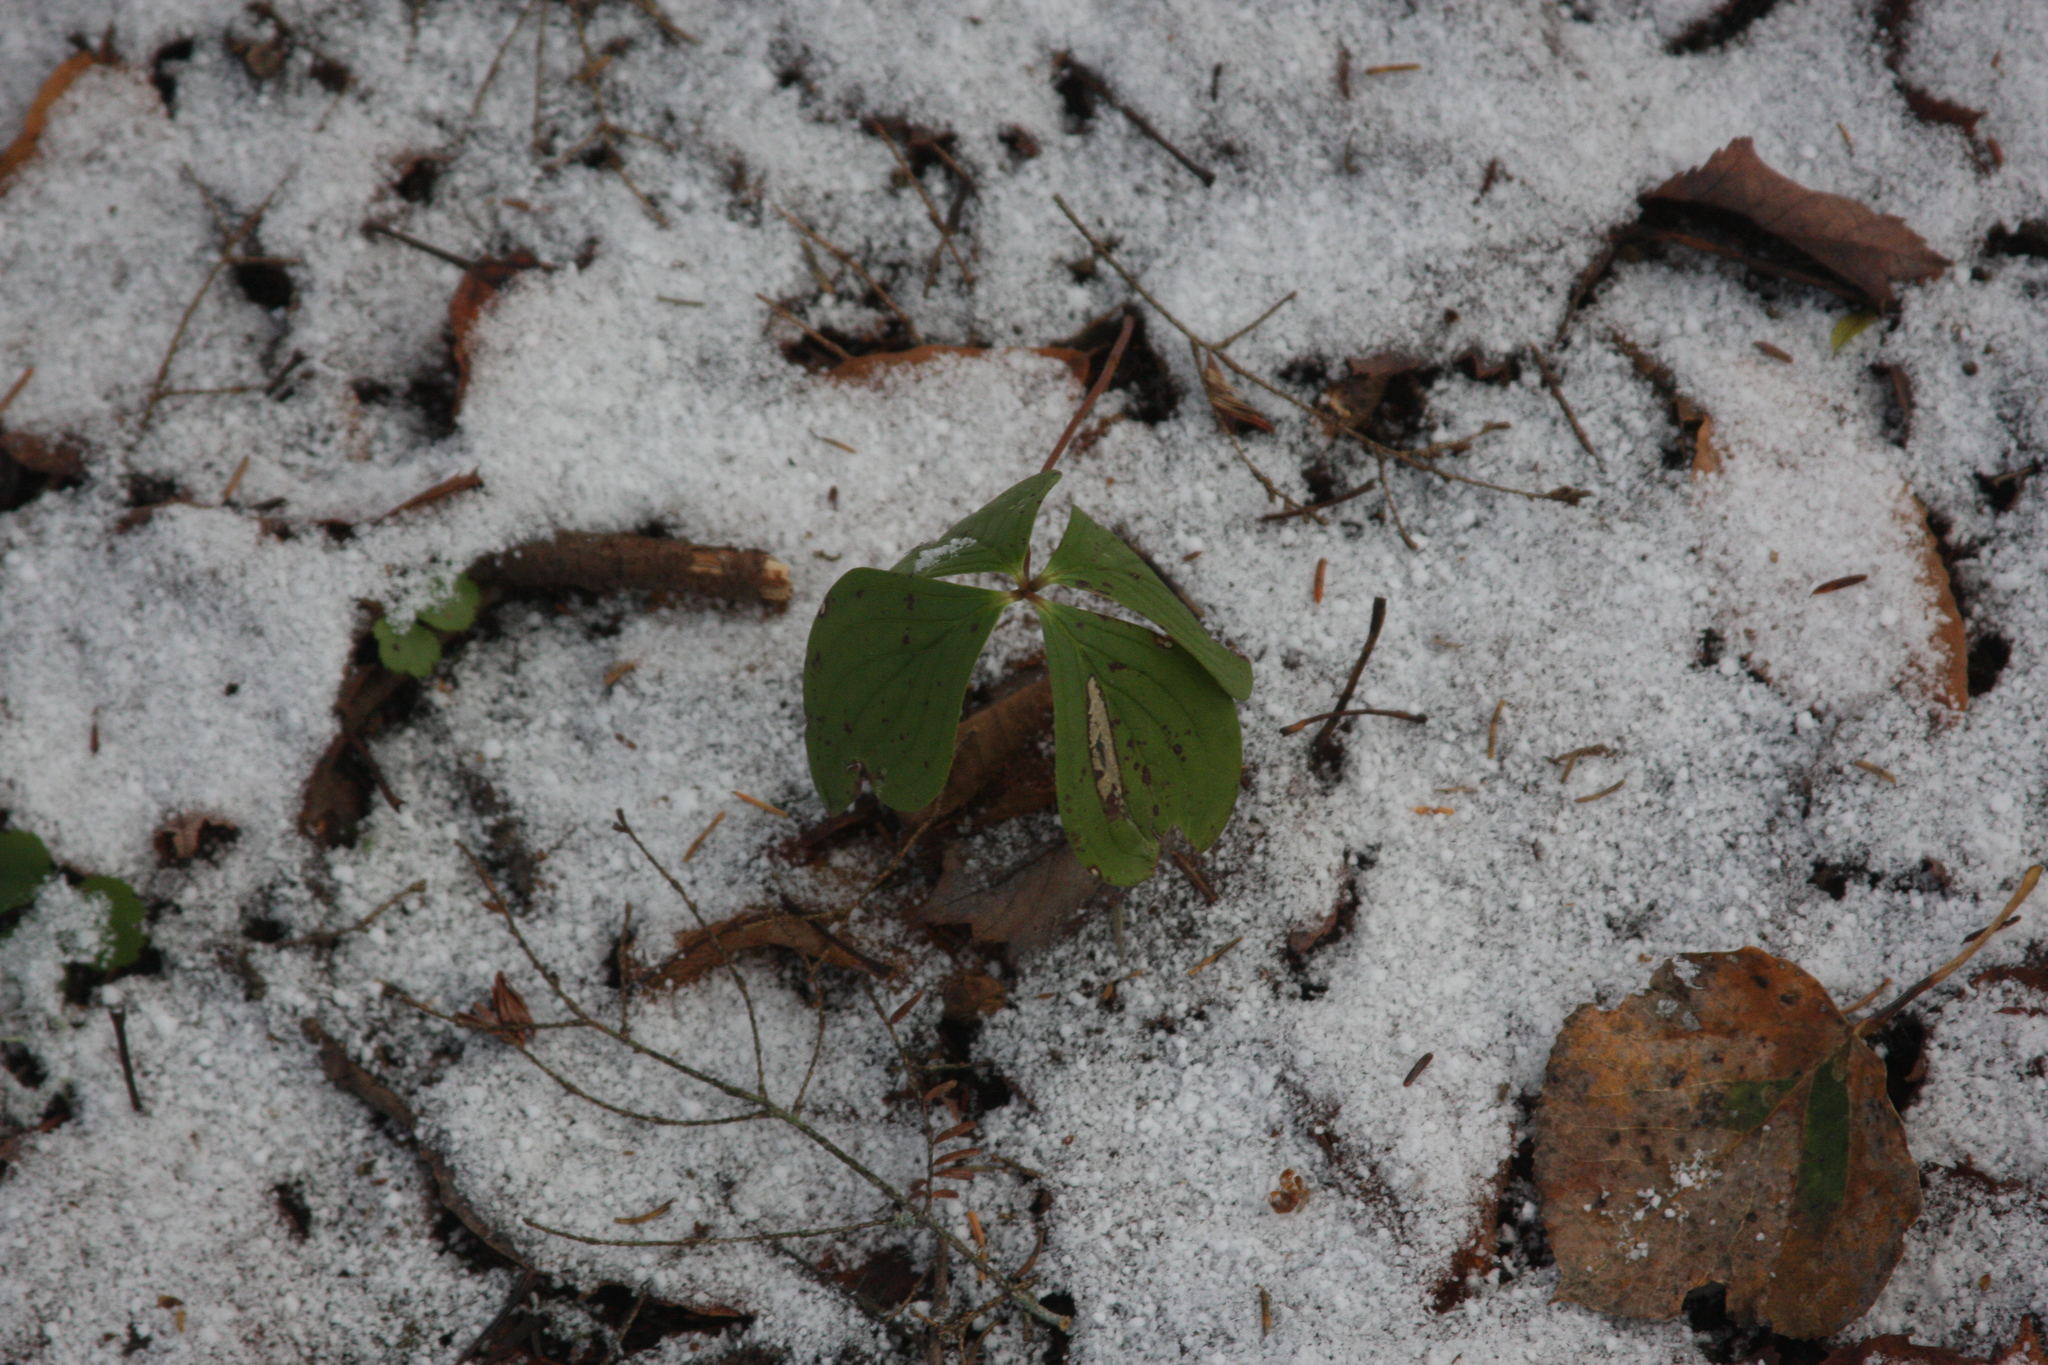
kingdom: Plantae
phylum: Tracheophyta
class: Magnoliopsida
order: Cornales
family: Cornaceae
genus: Cornus
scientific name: Cornus canadensis
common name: Creeping dogwood
